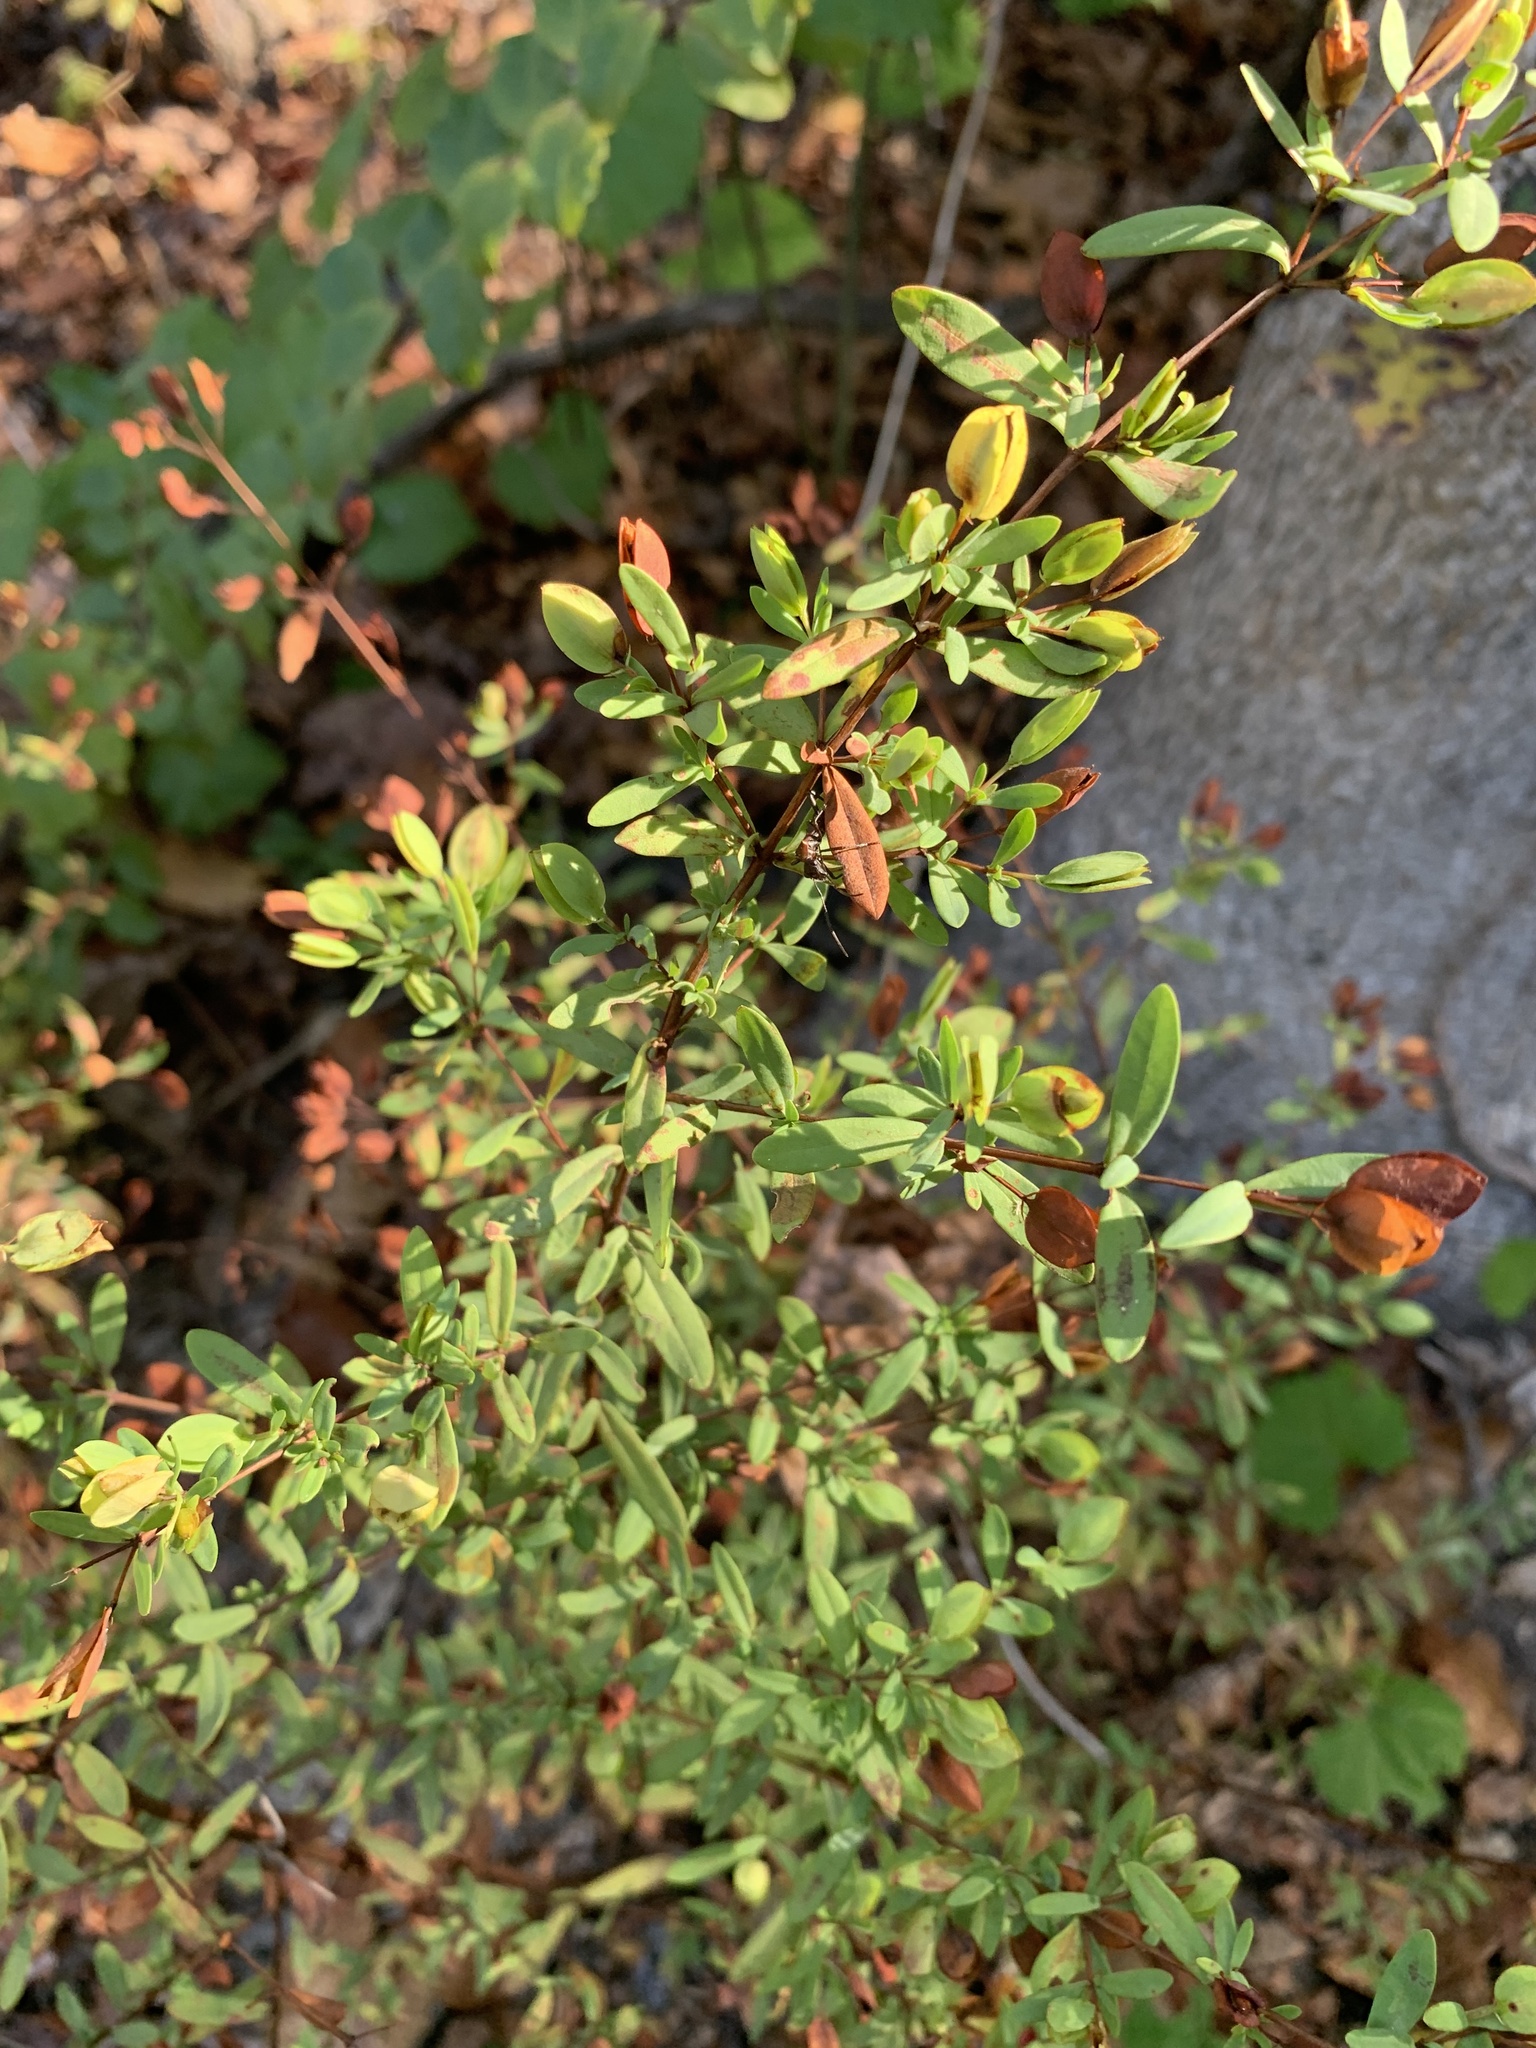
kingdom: Plantae
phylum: Tracheophyta
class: Magnoliopsida
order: Malpighiales
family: Hypericaceae
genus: Hypericum
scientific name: Hypericum hypericoides
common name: St. andrew's cross
